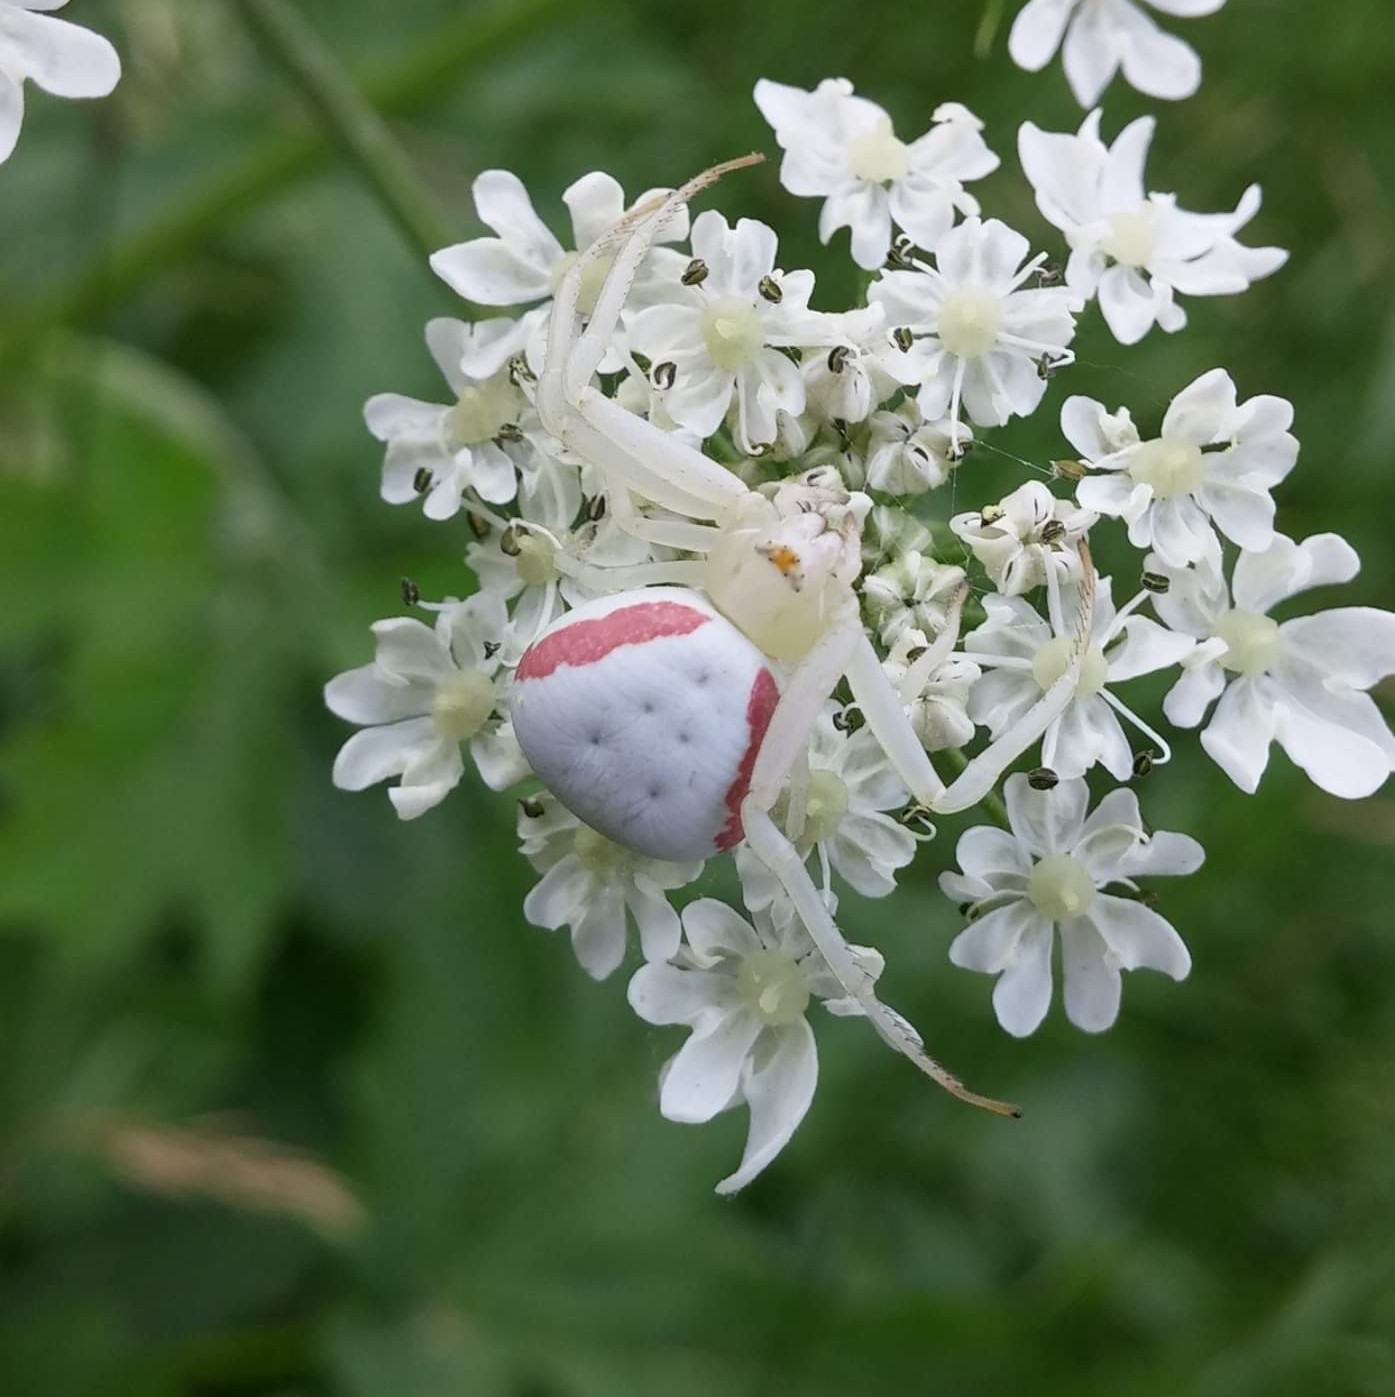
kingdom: Animalia
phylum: Arthropoda
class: Arachnida
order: Araneae
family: Thomisidae
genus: Misumena
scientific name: Misumena vatia
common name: Goldenrod crab spider
